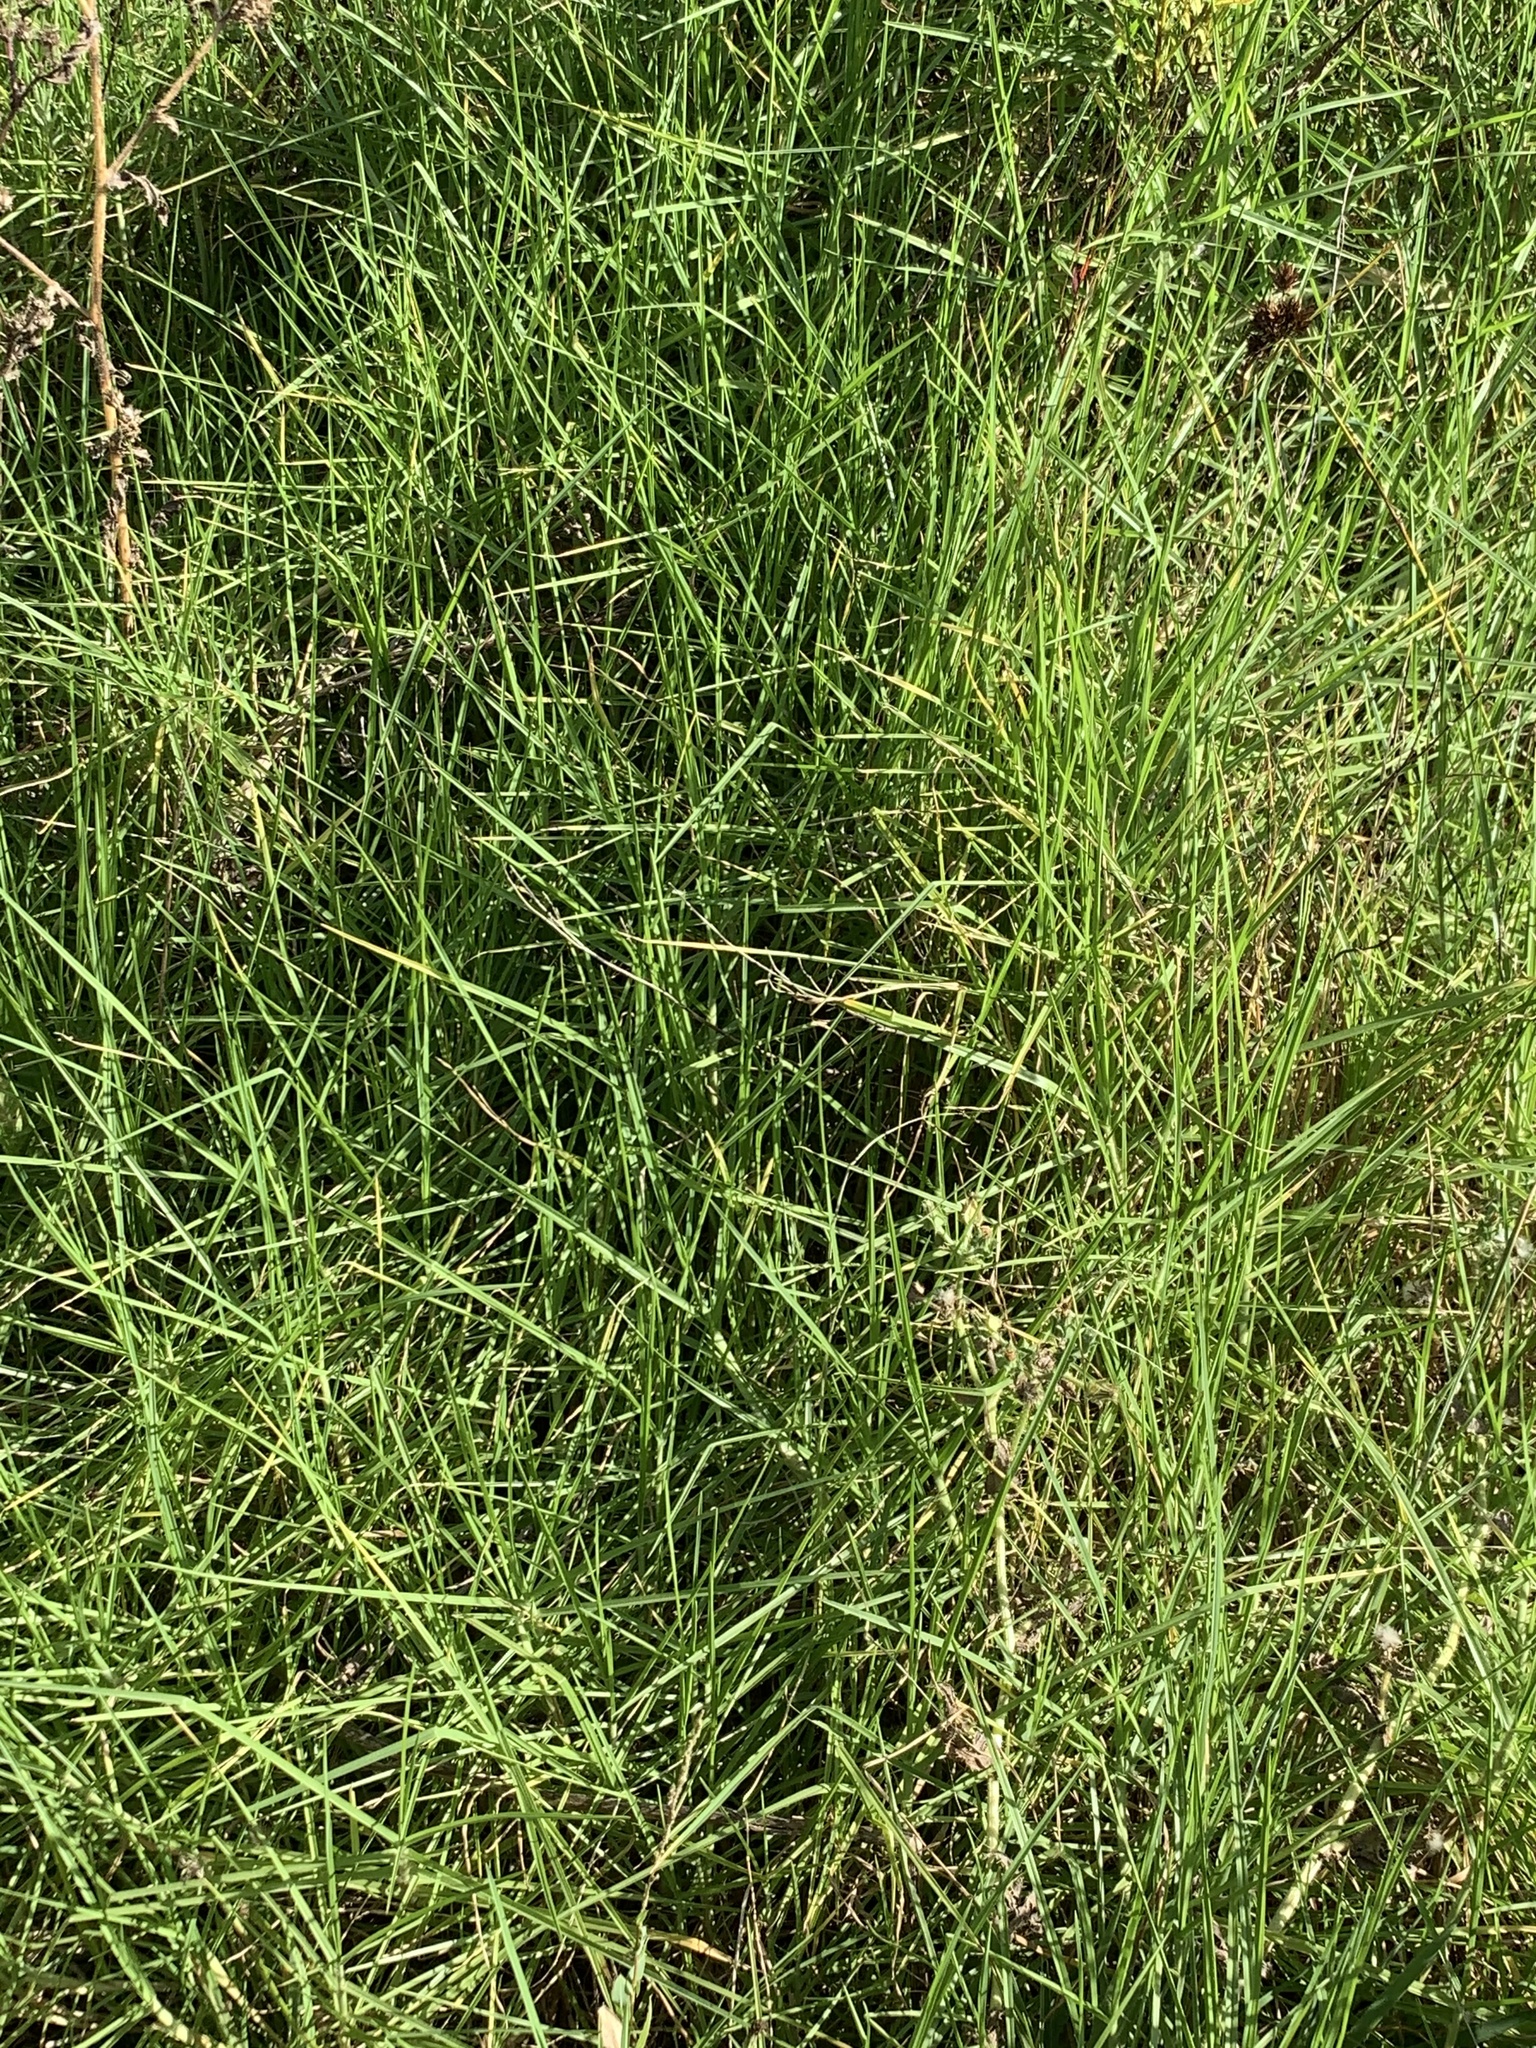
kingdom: Plantae
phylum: Tracheophyta
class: Liliopsida
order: Poales
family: Poaceae
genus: Cenchrus
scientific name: Cenchrus clandestinus
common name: Kikuyugrass
